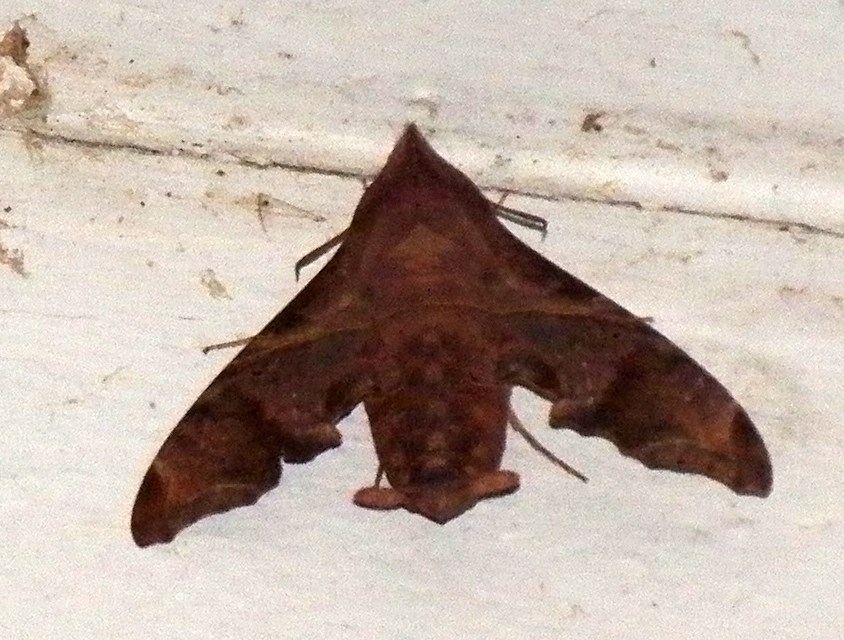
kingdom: Animalia
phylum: Arthropoda
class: Insecta
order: Lepidoptera
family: Sphingidae
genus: Enyo
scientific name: Enyo lugubris
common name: Mournful sphinx
